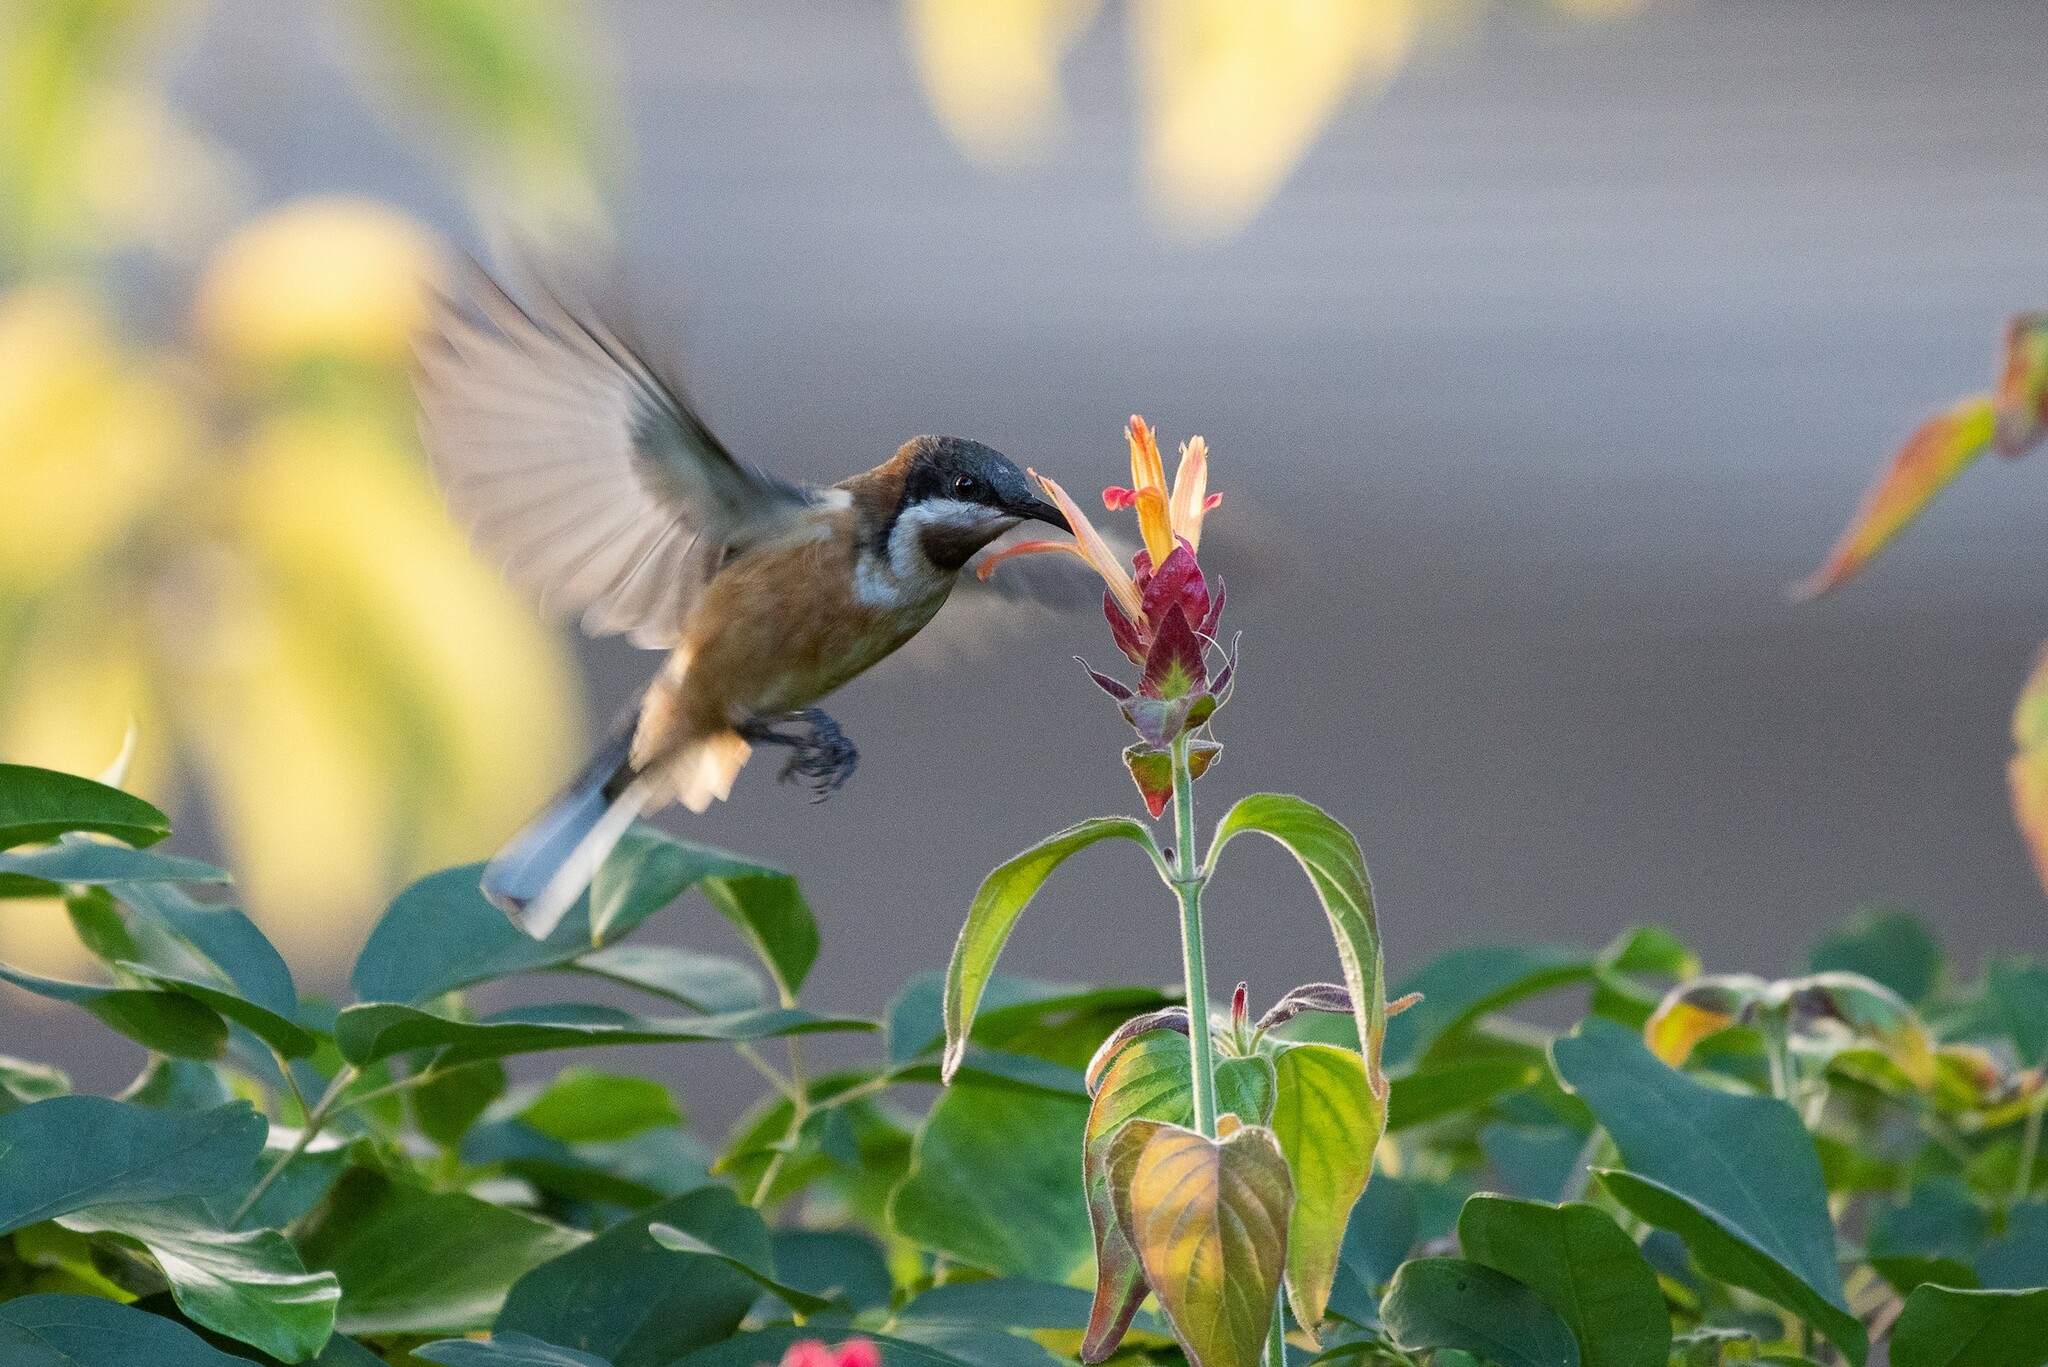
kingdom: Animalia
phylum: Chordata
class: Aves
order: Passeriformes
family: Meliphagidae
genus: Acanthorhynchus
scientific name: Acanthorhynchus tenuirostris
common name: Eastern spinebill
